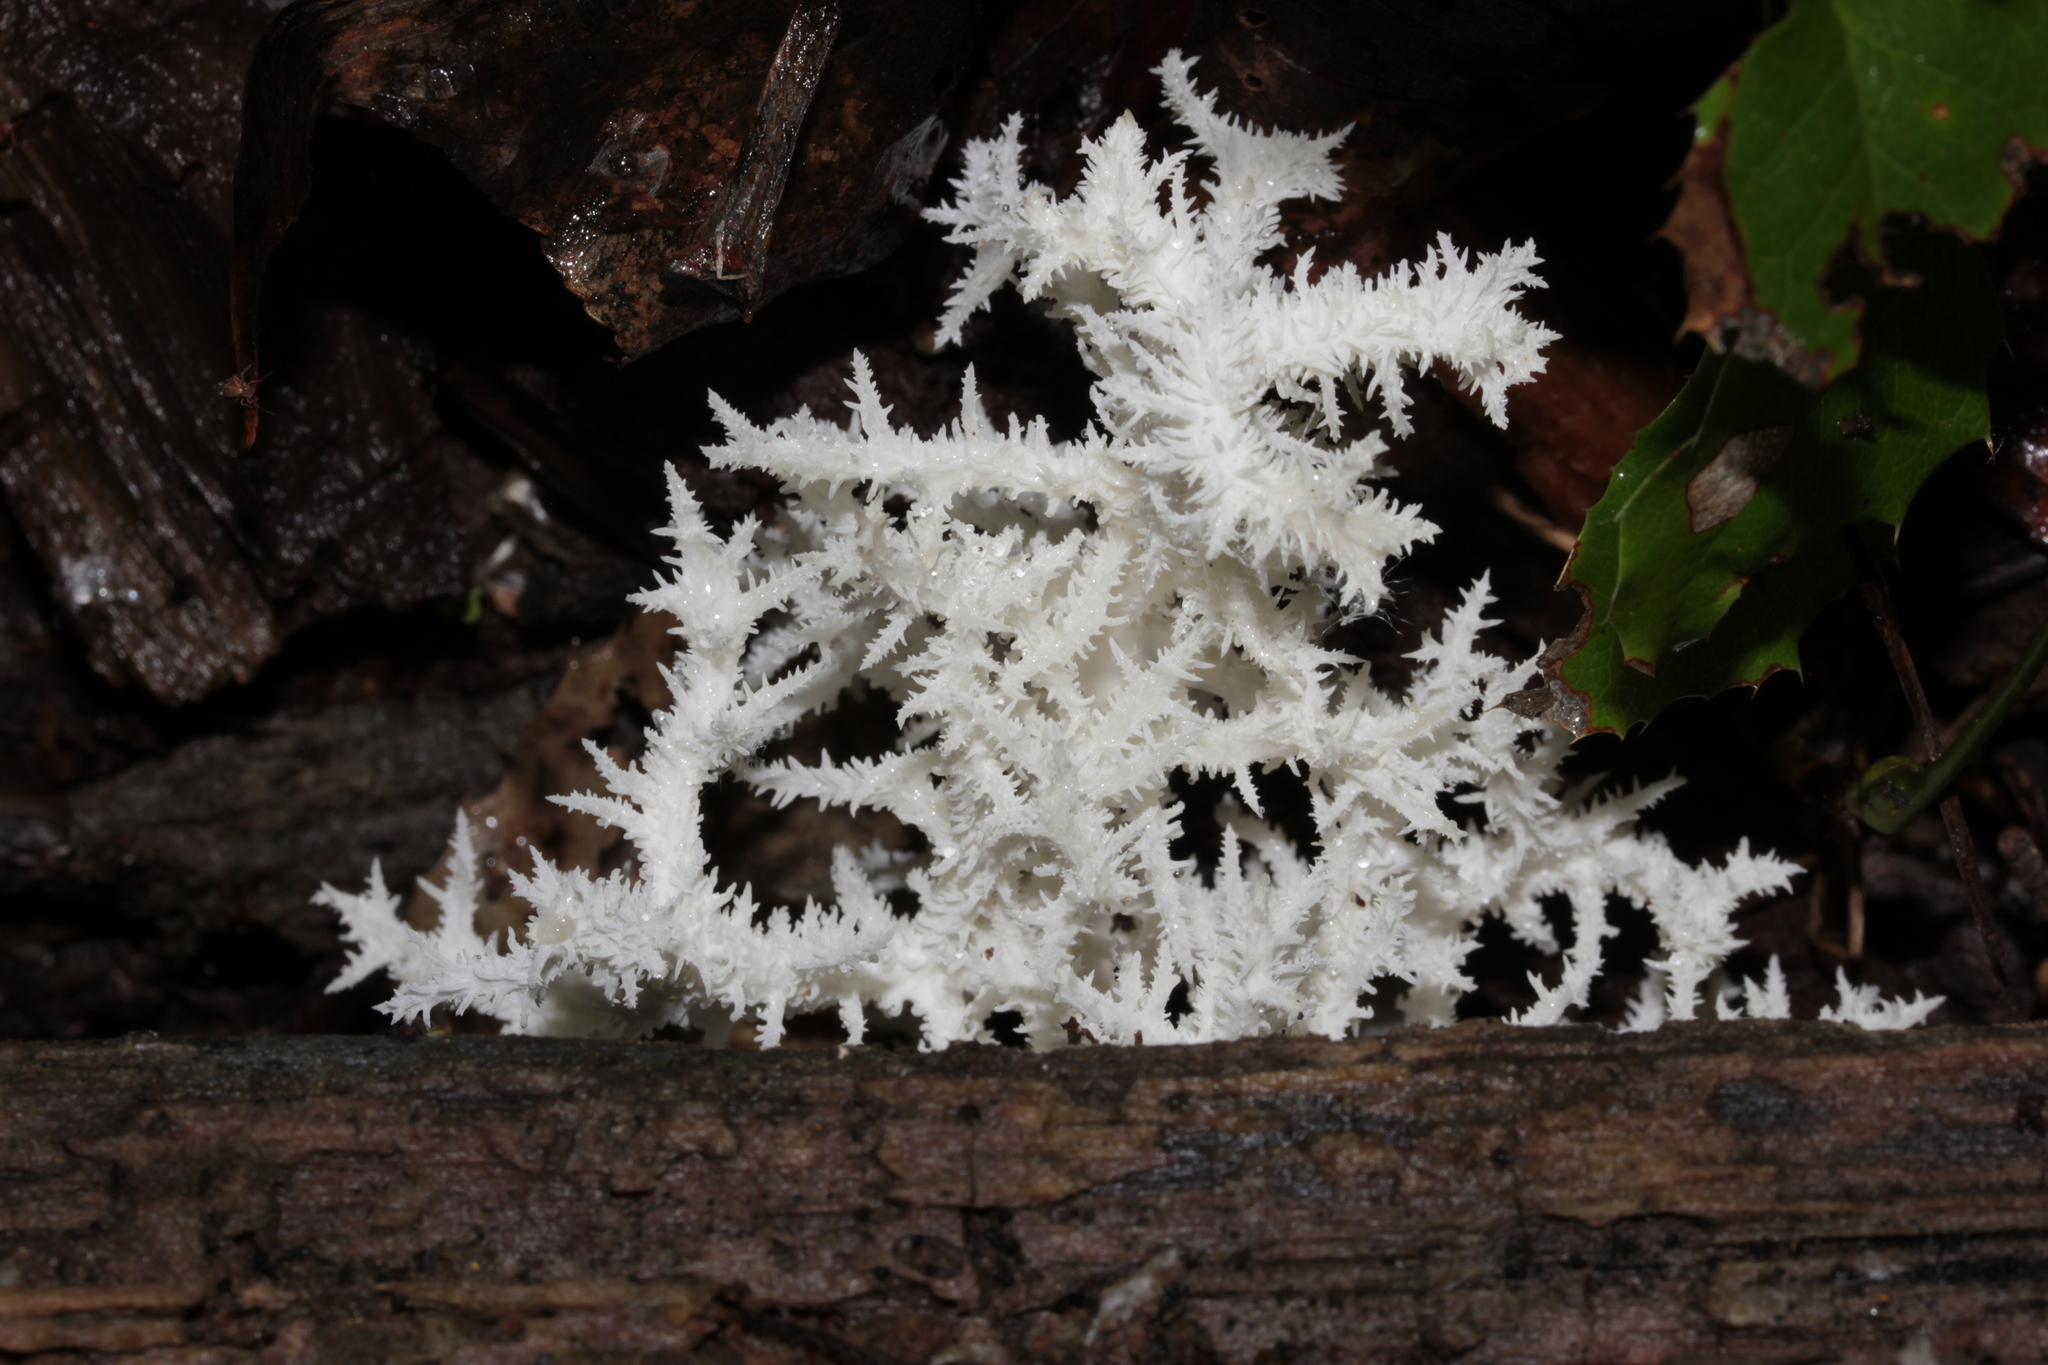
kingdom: Fungi
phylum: Basidiomycota
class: Agaricomycetes
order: Russulales
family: Hericiaceae
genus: Hericium
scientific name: Hericium coralloides
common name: Coral tooth
